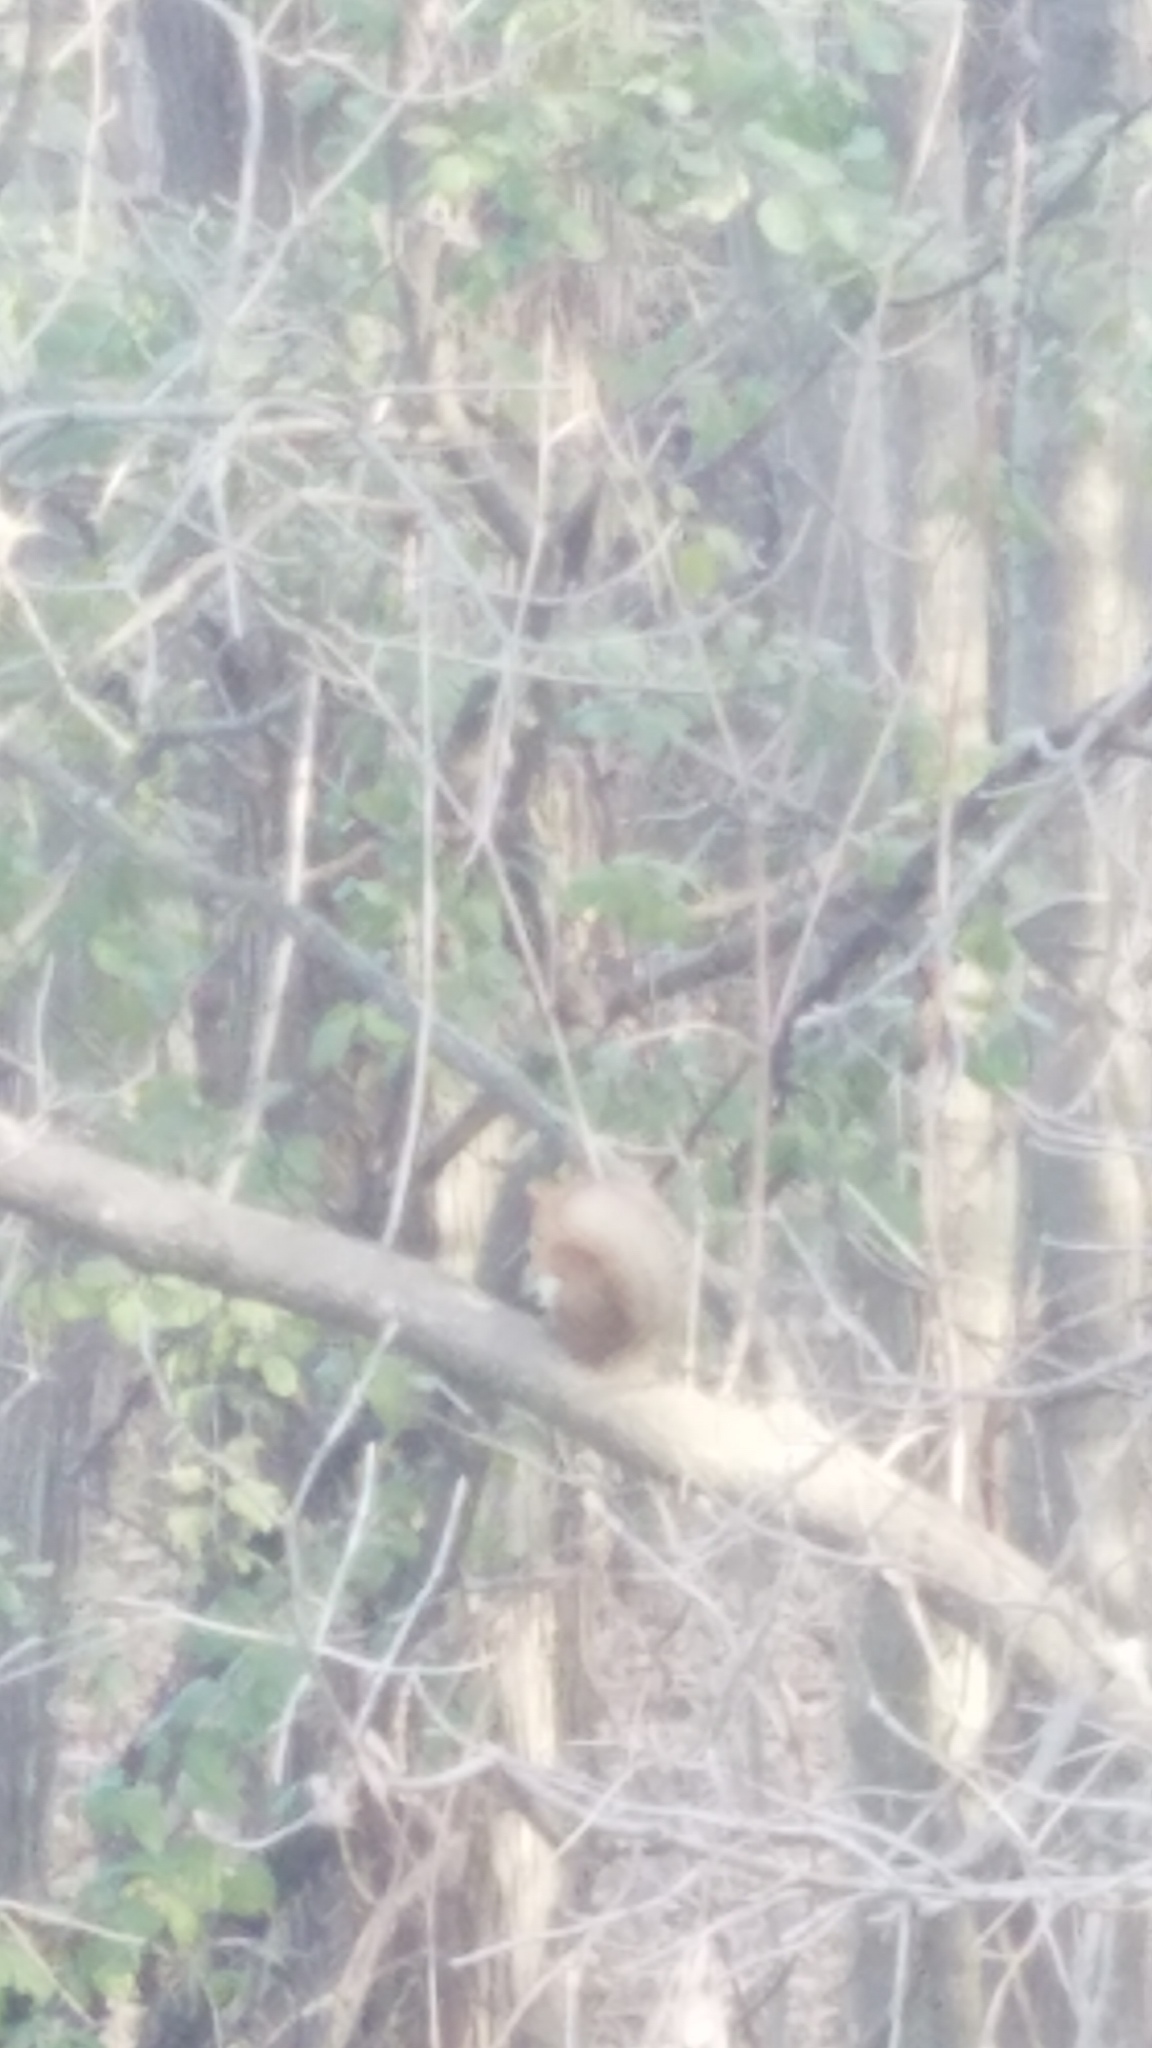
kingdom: Animalia
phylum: Chordata
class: Mammalia
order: Rodentia
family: Sciuridae
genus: Tamiasciurus
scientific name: Tamiasciurus hudsonicus
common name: Red squirrel
